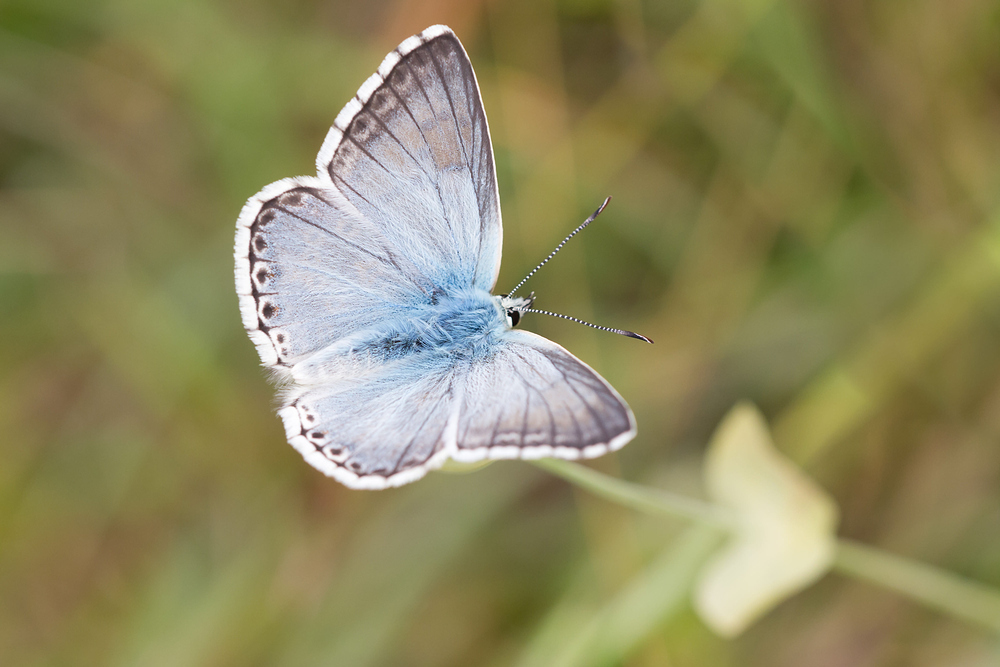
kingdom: Animalia
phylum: Arthropoda
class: Insecta
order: Lepidoptera
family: Lycaenidae
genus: Lysandra
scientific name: Lysandra coridon
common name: Chalkhill blue
